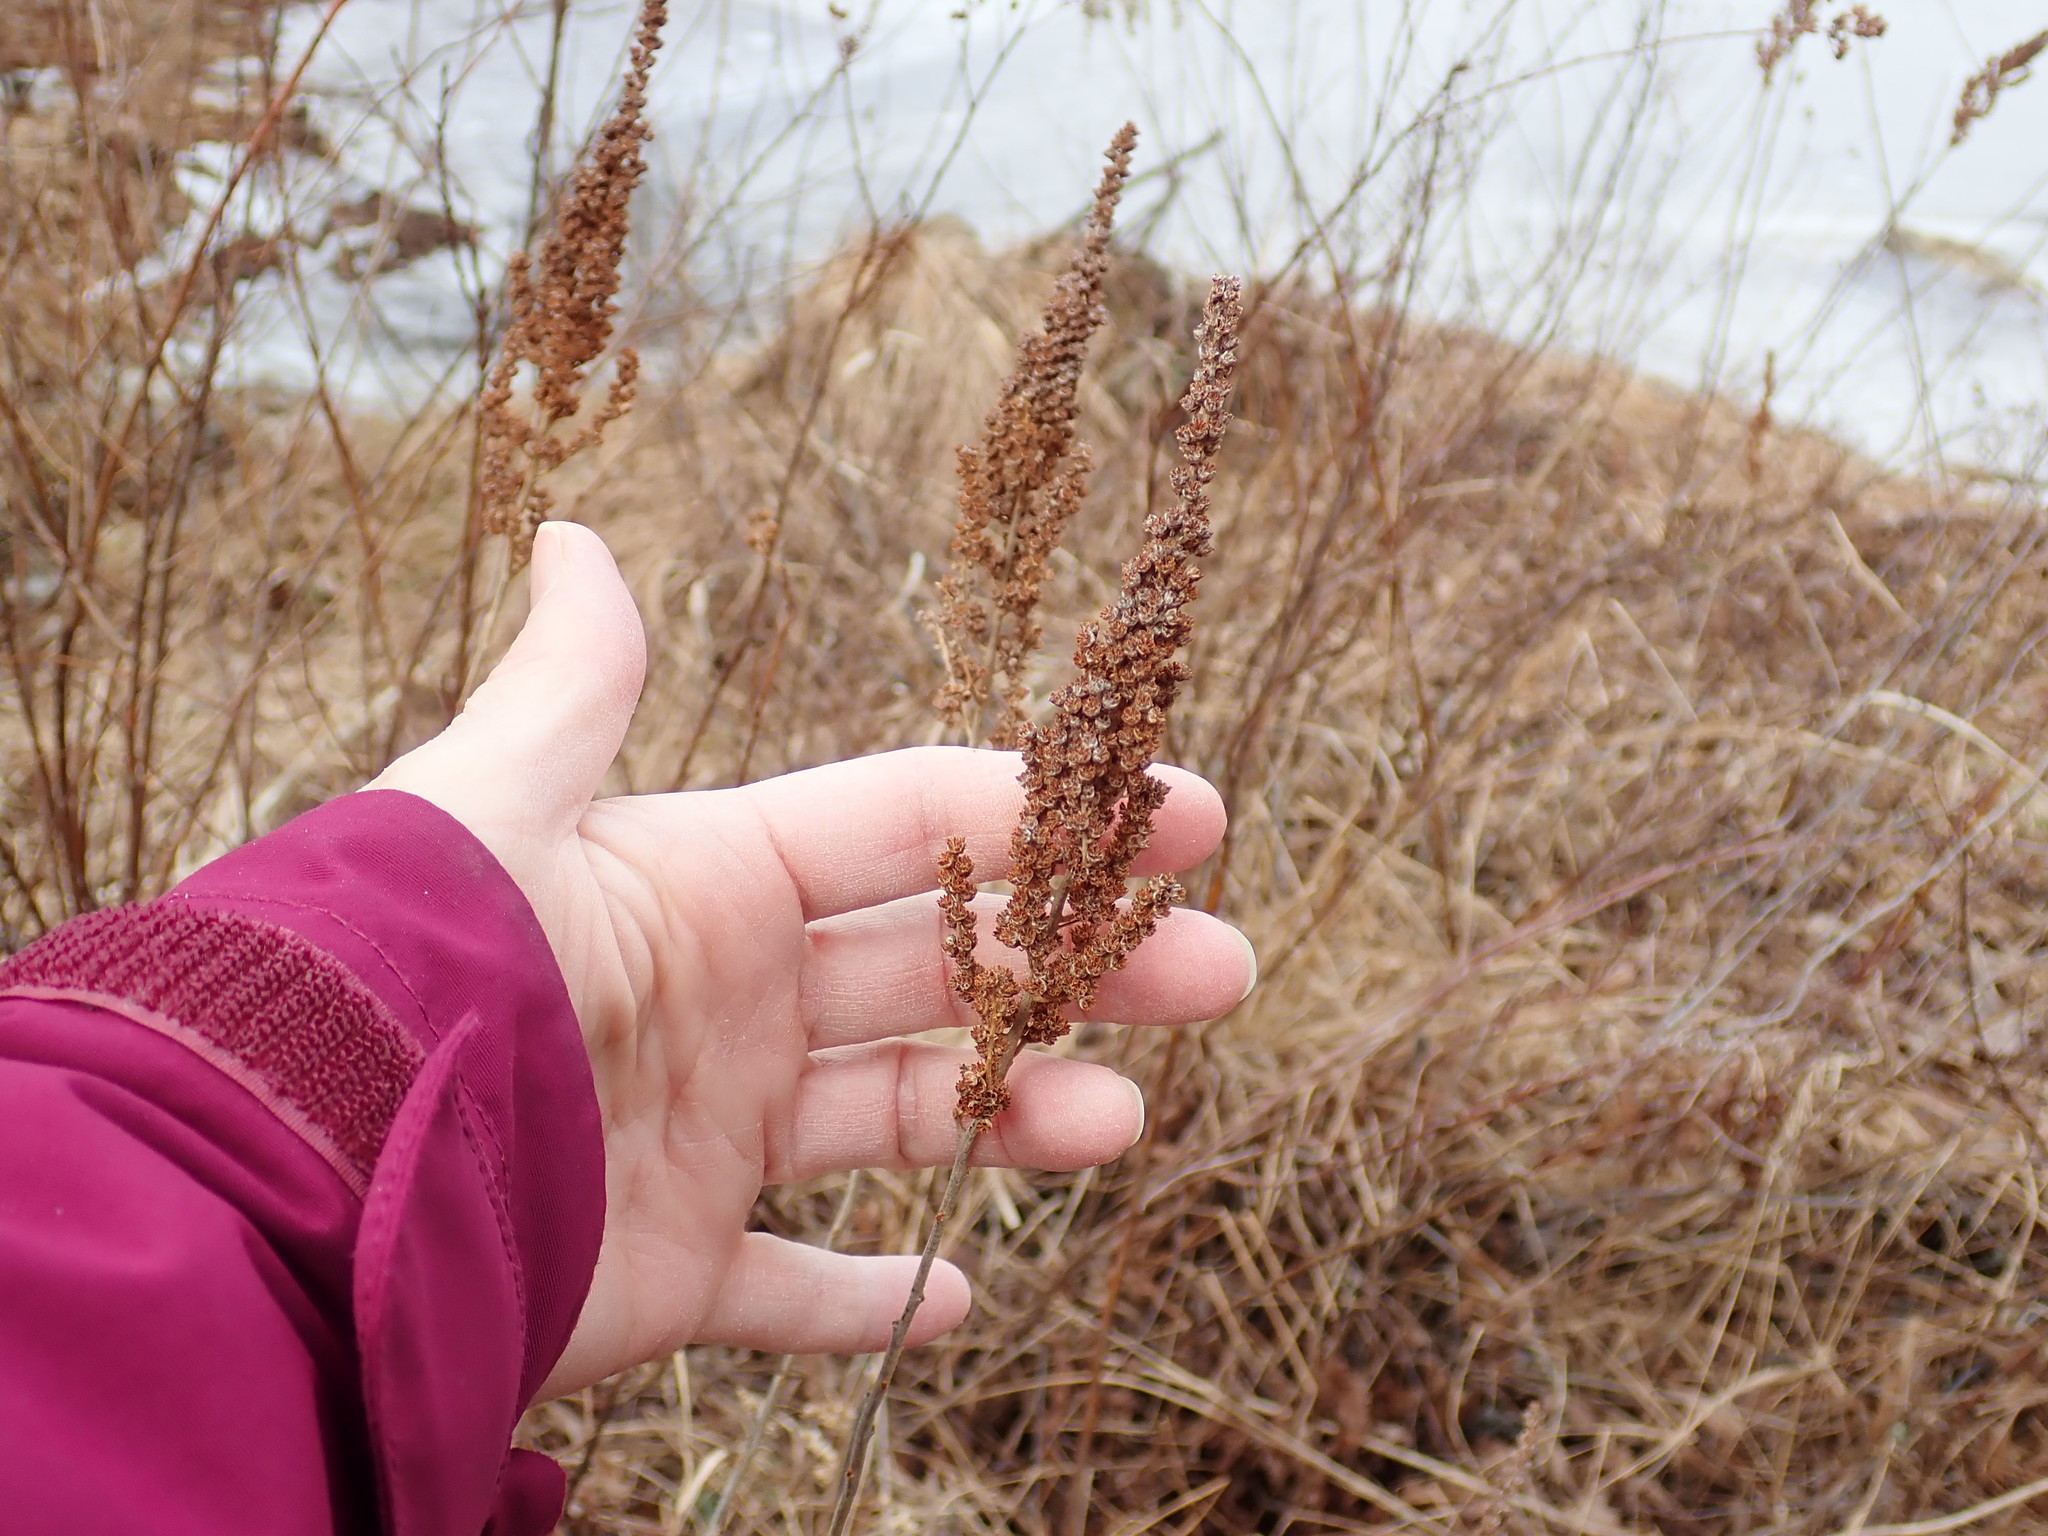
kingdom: Plantae
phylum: Tracheophyta
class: Magnoliopsida
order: Rosales
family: Rosaceae
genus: Spiraea
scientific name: Spiraea tomentosa
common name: Hardhack
